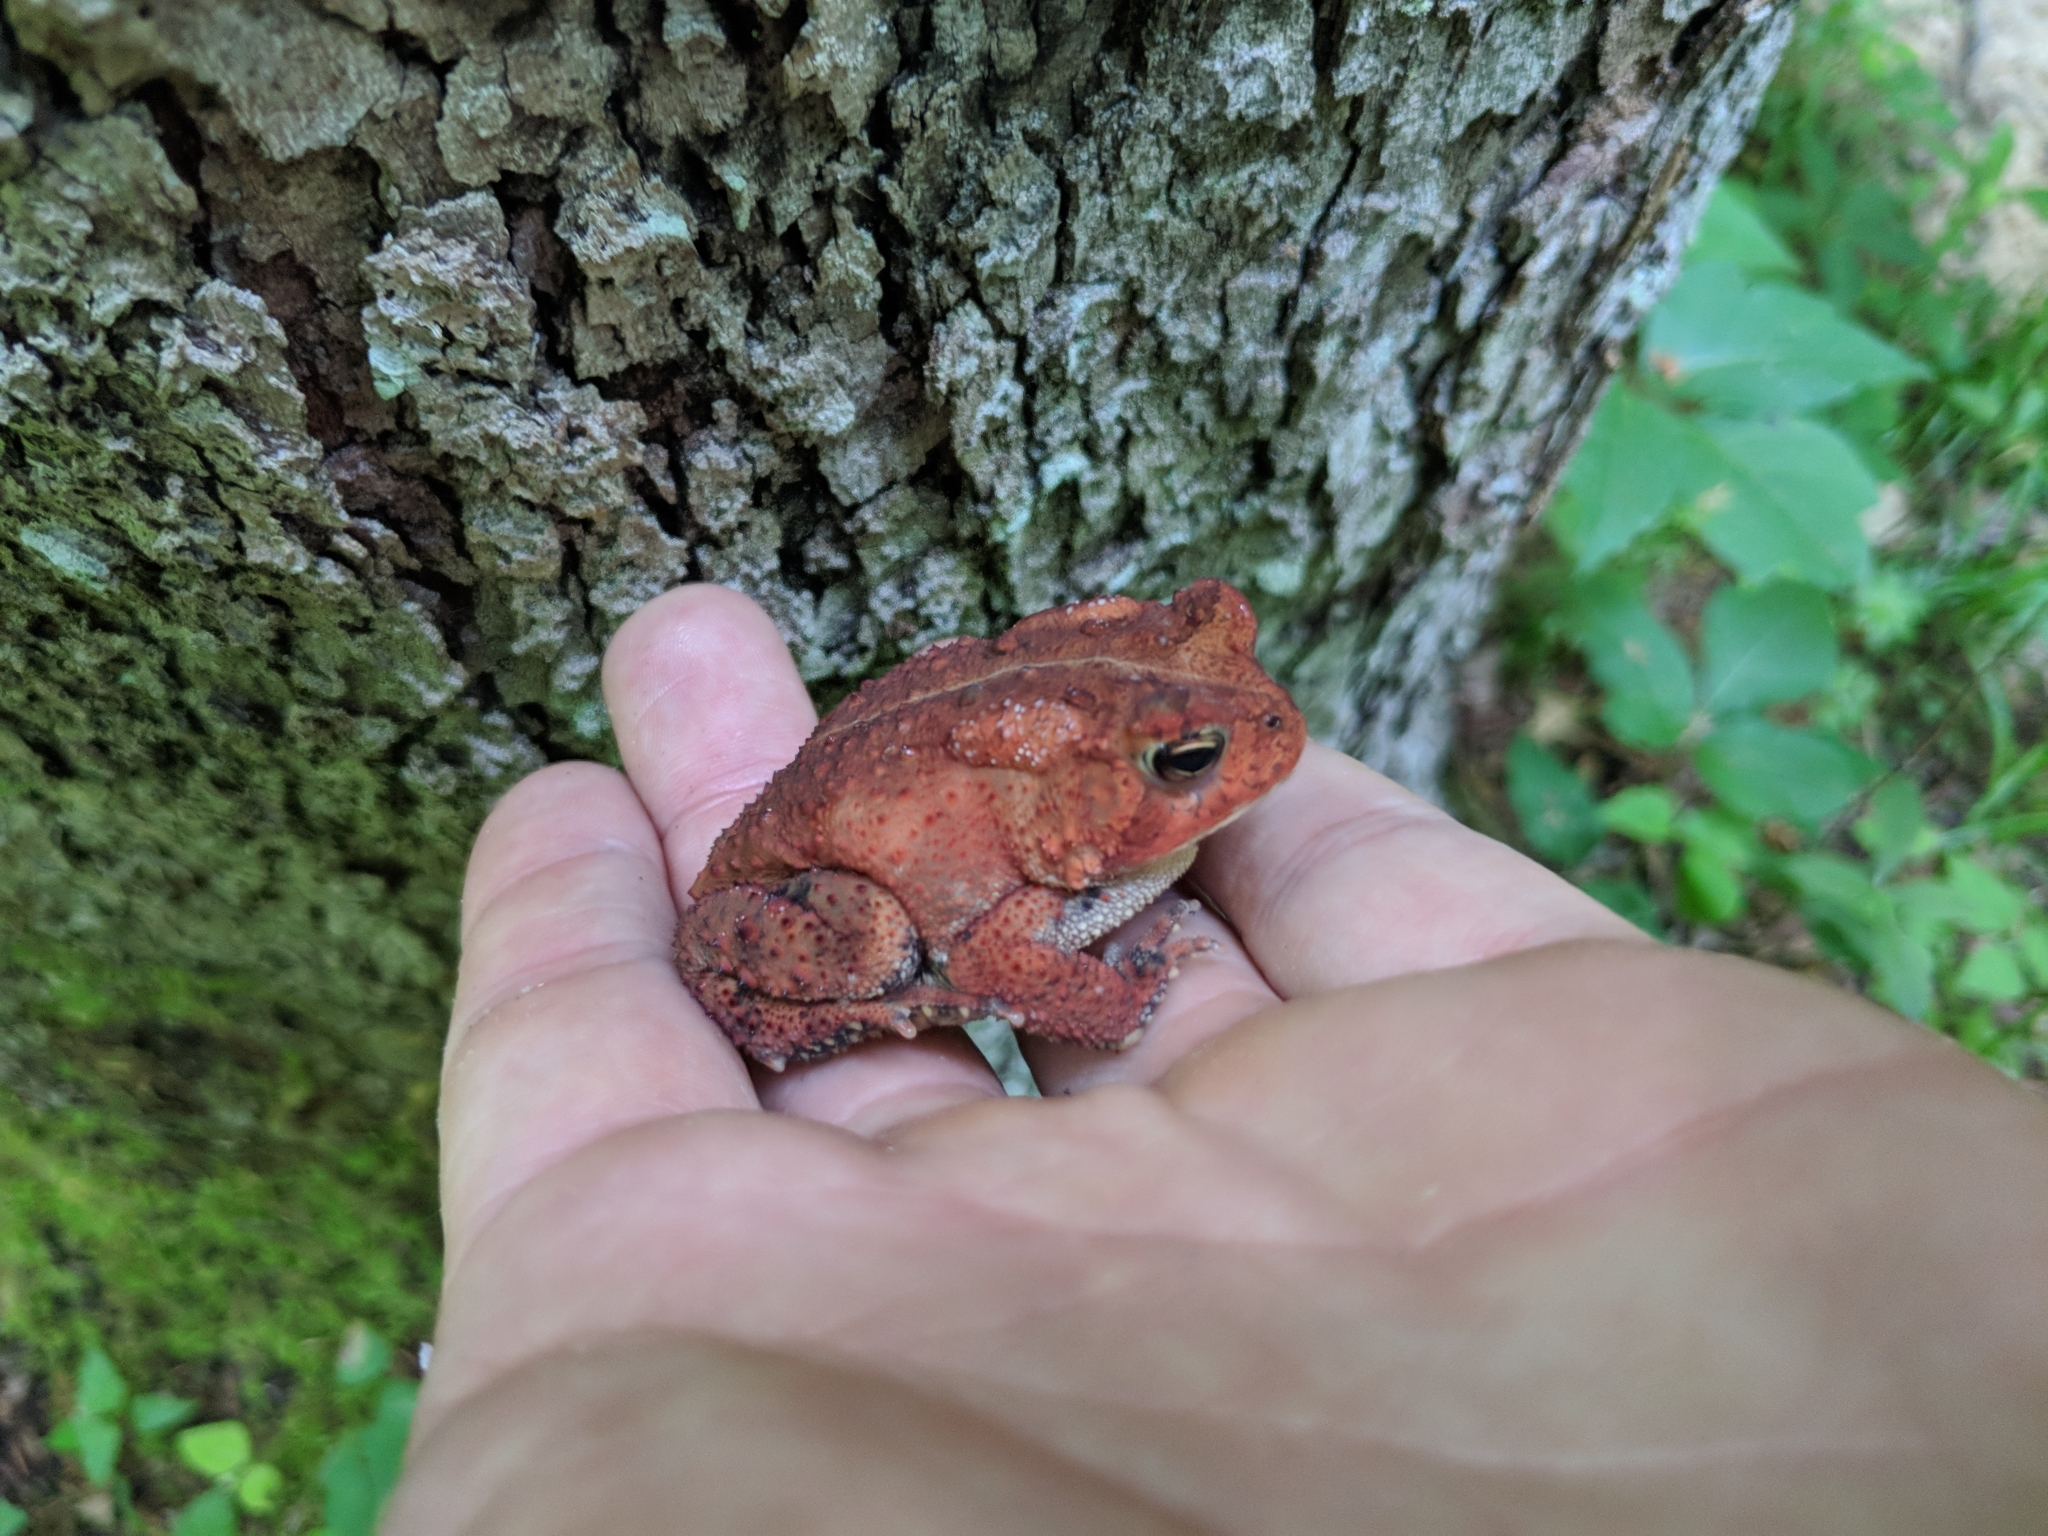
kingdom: Animalia
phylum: Chordata
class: Amphibia
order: Anura
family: Bufonidae
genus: Anaxyrus
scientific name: Anaxyrus americanus
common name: American toad
